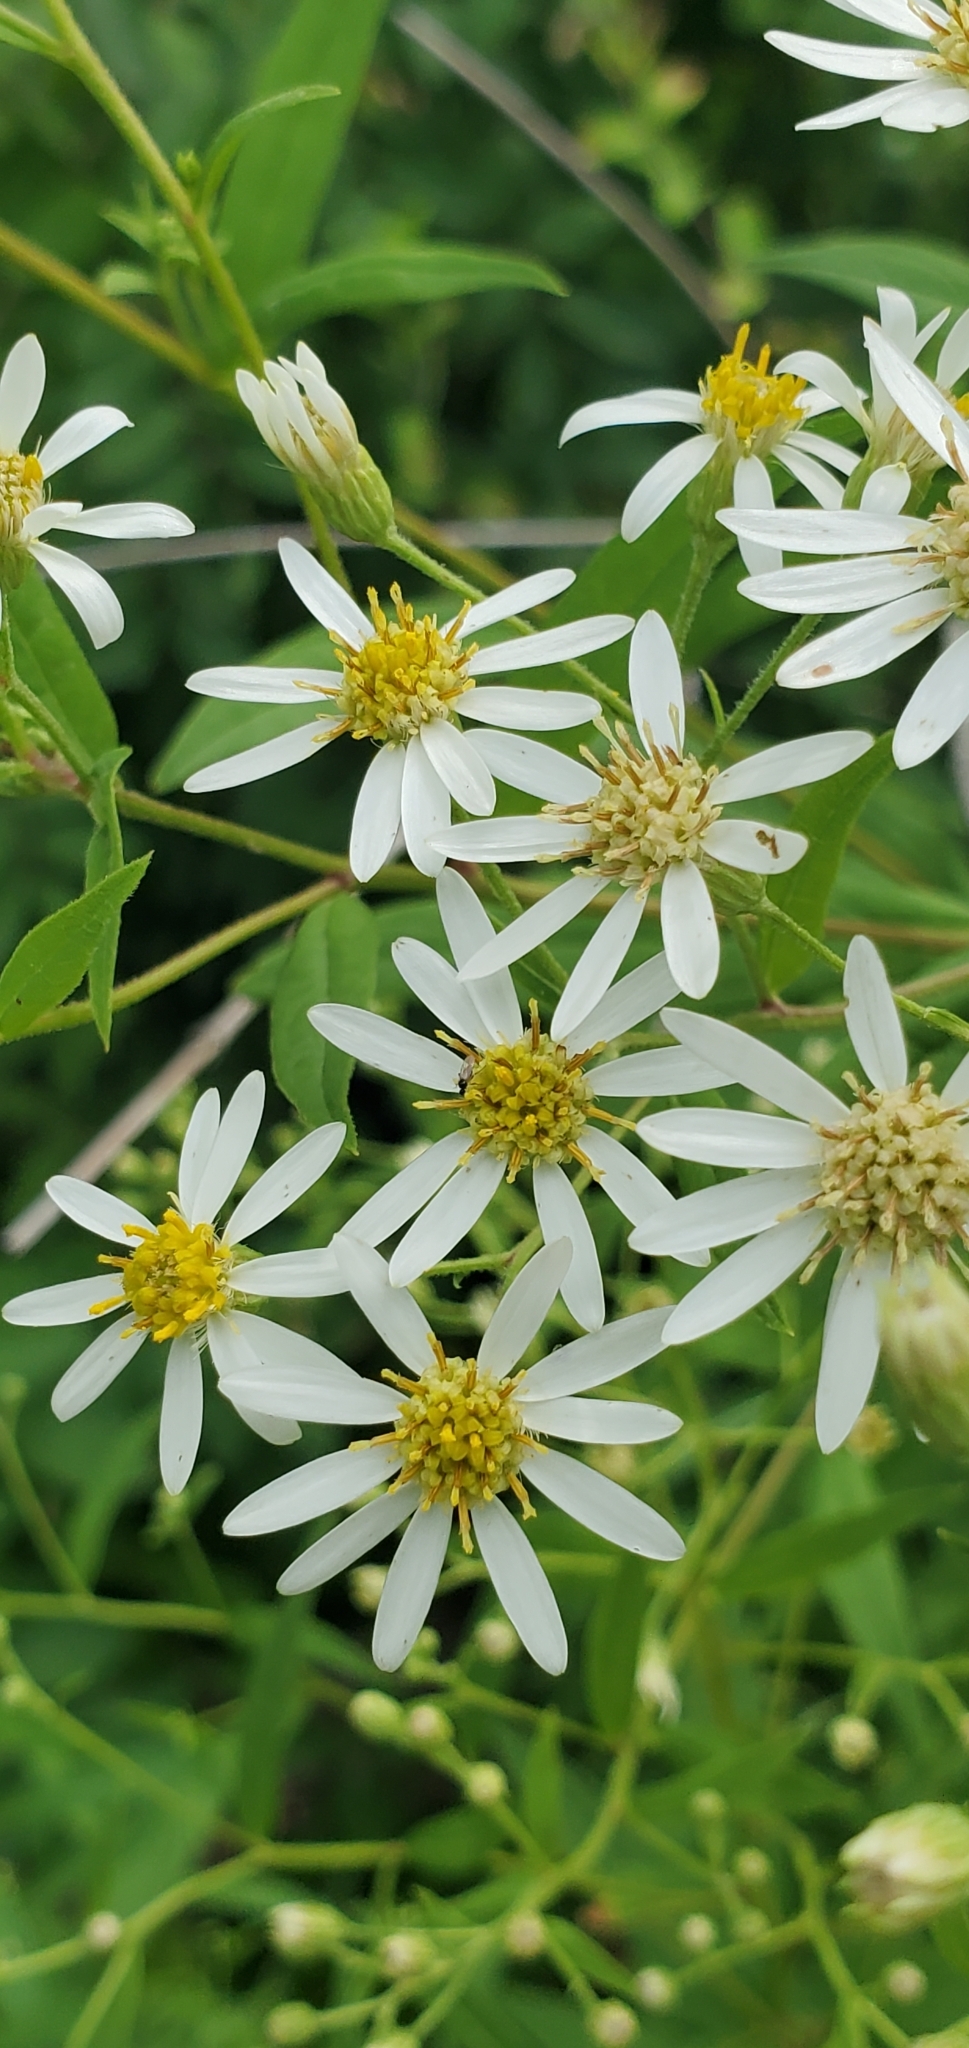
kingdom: Plantae
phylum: Tracheophyta
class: Magnoliopsida
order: Asterales
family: Asteraceae
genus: Doellingeria
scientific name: Doellingeria umbellata
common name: Flat-top white aster
